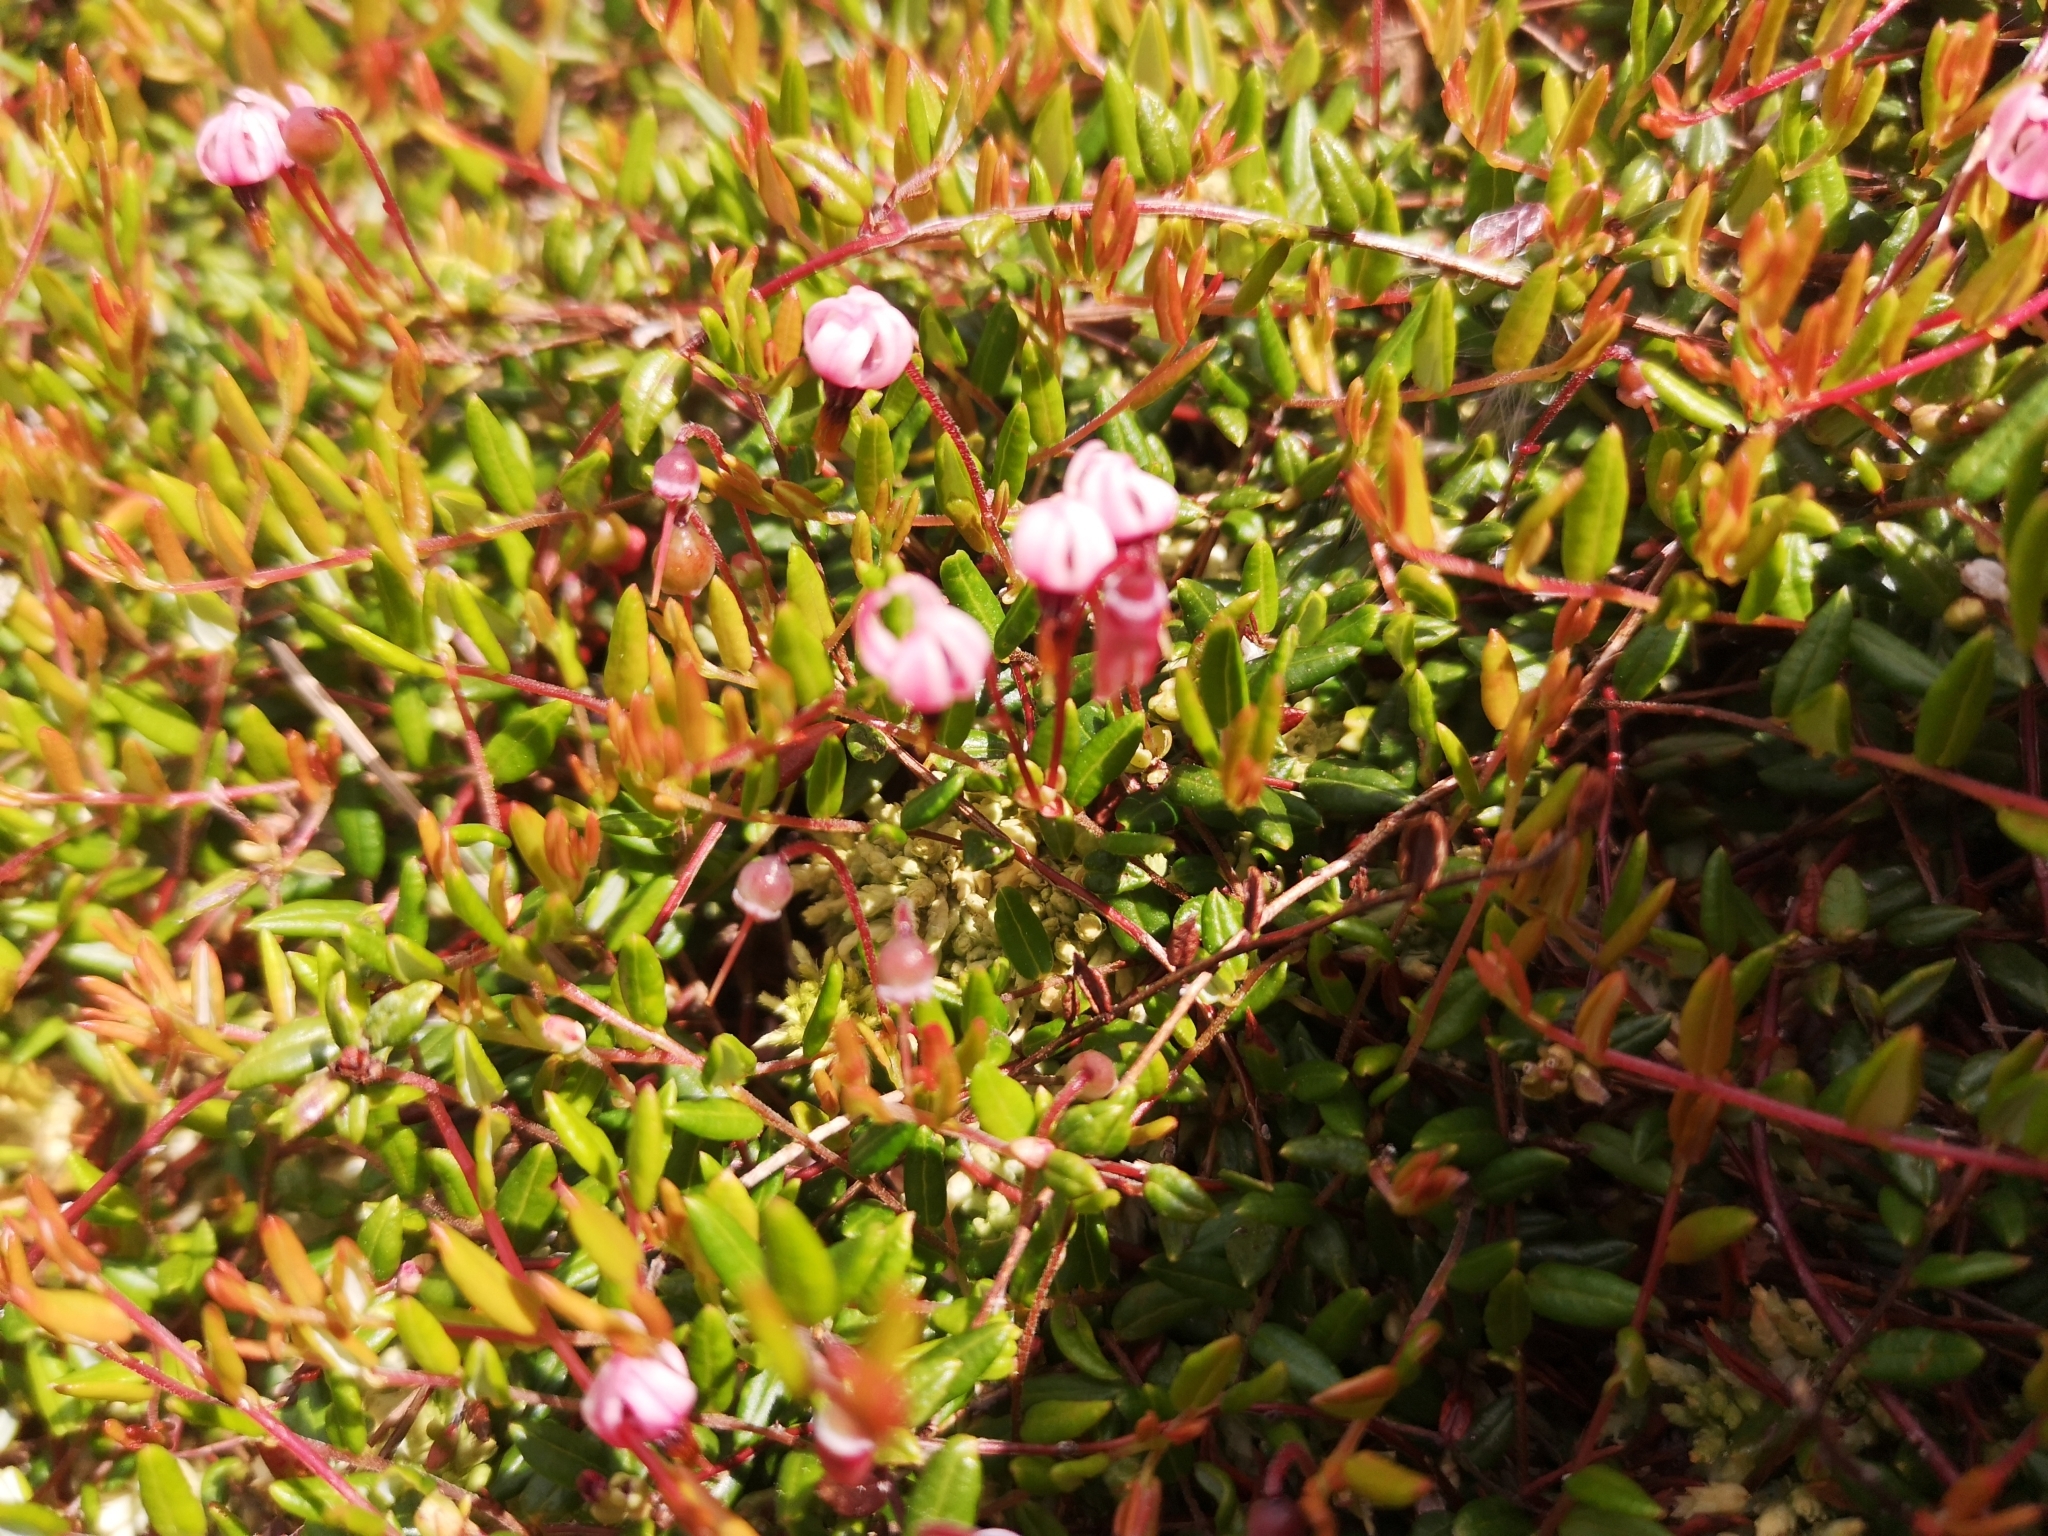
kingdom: Plantae
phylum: Tracheophyta
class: Magnoliopsida
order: Ericales
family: Ericaceae
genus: Vaccinium
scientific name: Vaccinium oxycoccos
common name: Cranberry
